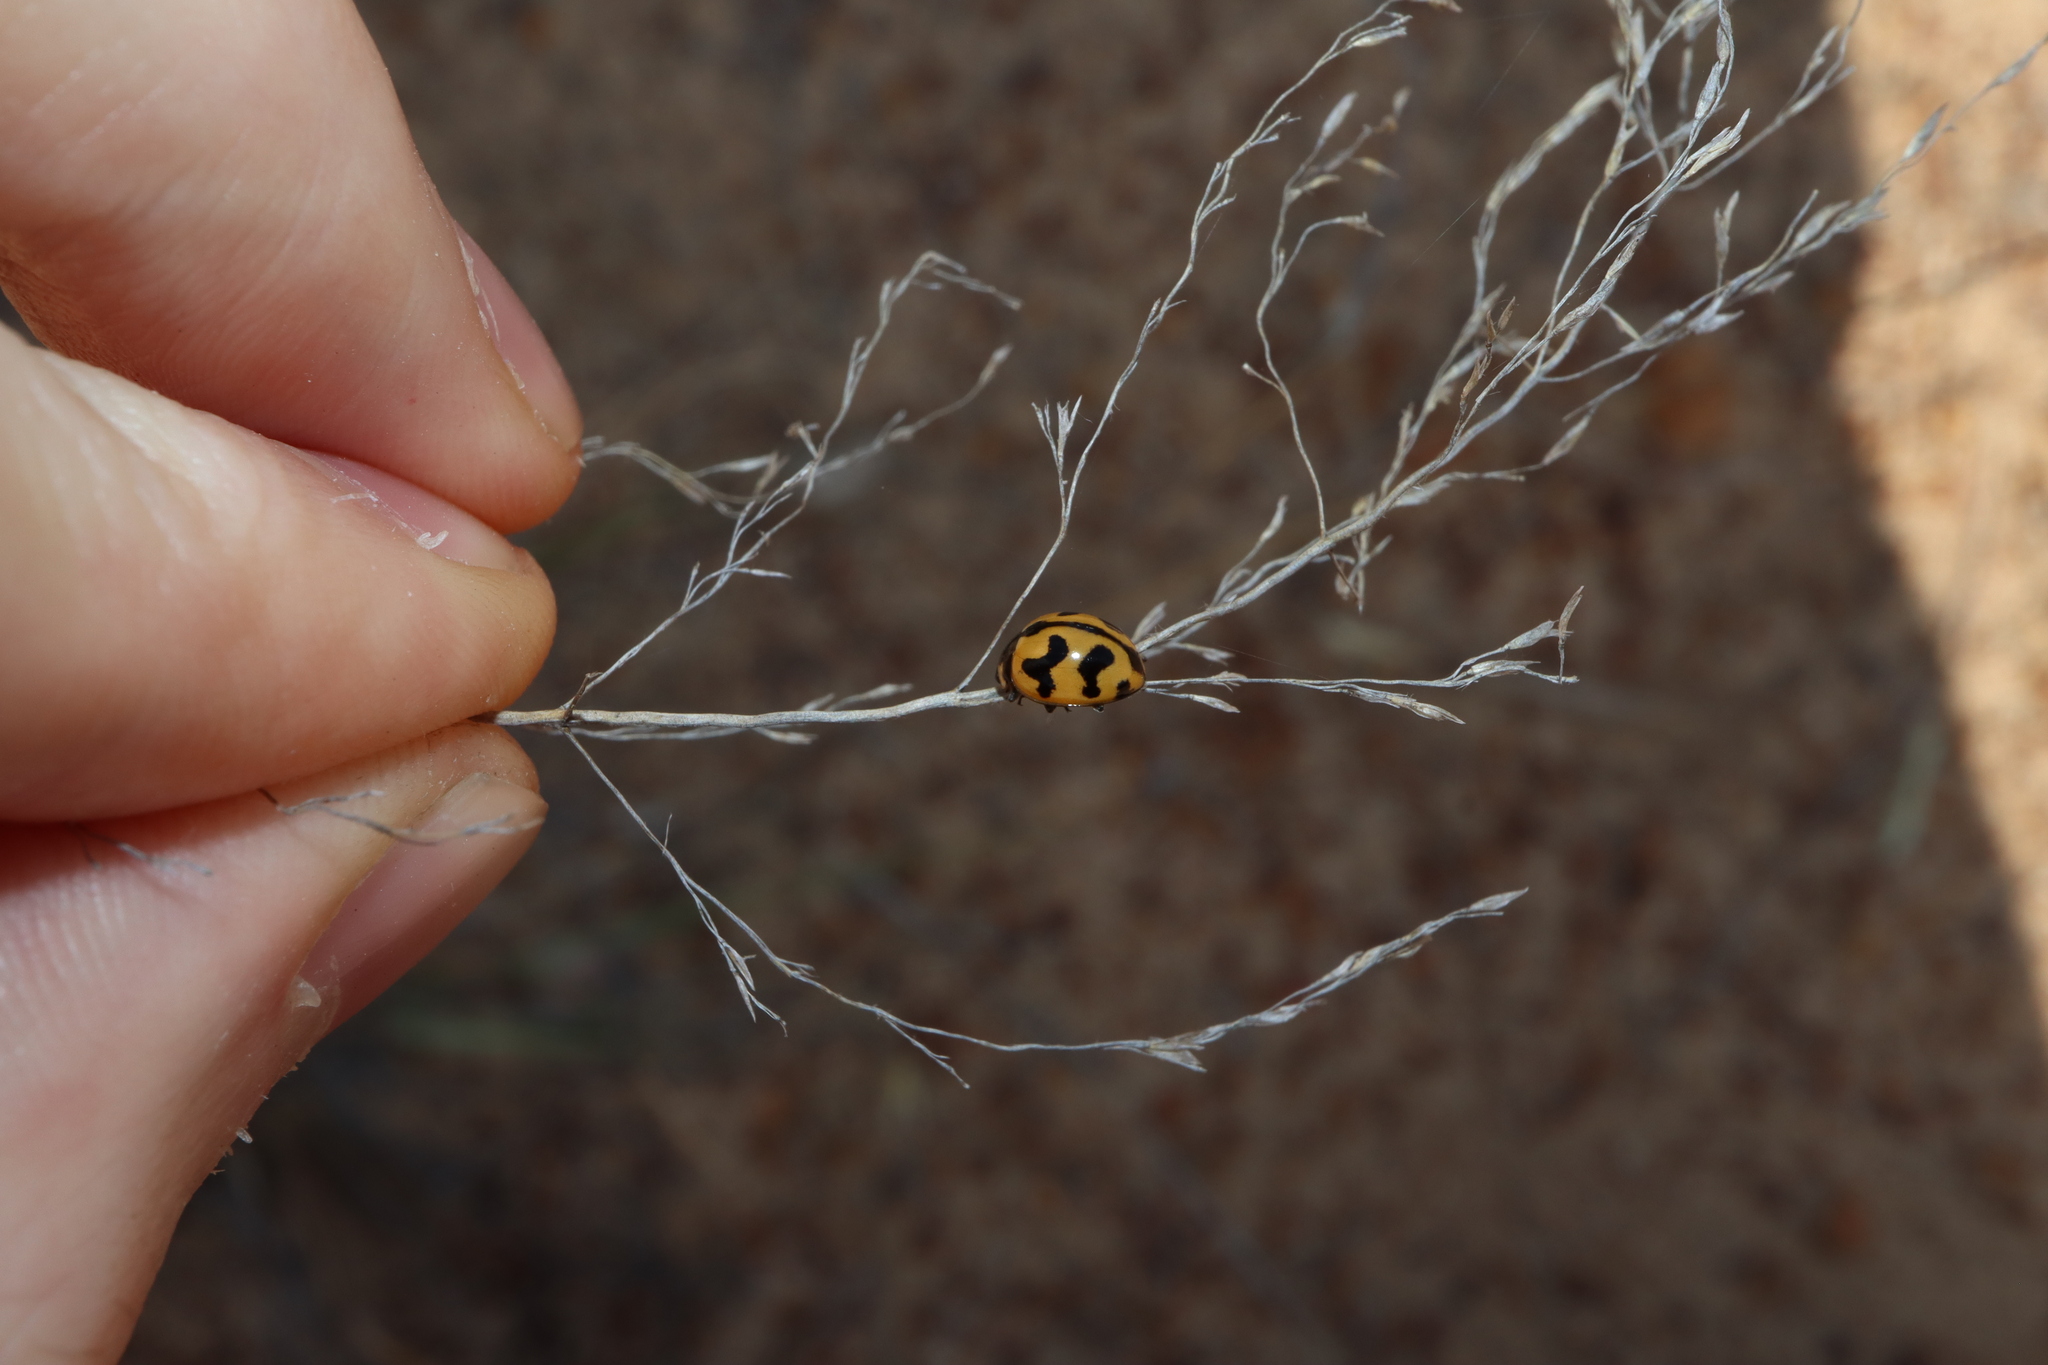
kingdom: Animalia
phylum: Arthropoda
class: Insecta
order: Coleoptera
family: Coccinellidae
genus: Coccinella
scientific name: Coccinella transversalis
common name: Transverse lady beetle
